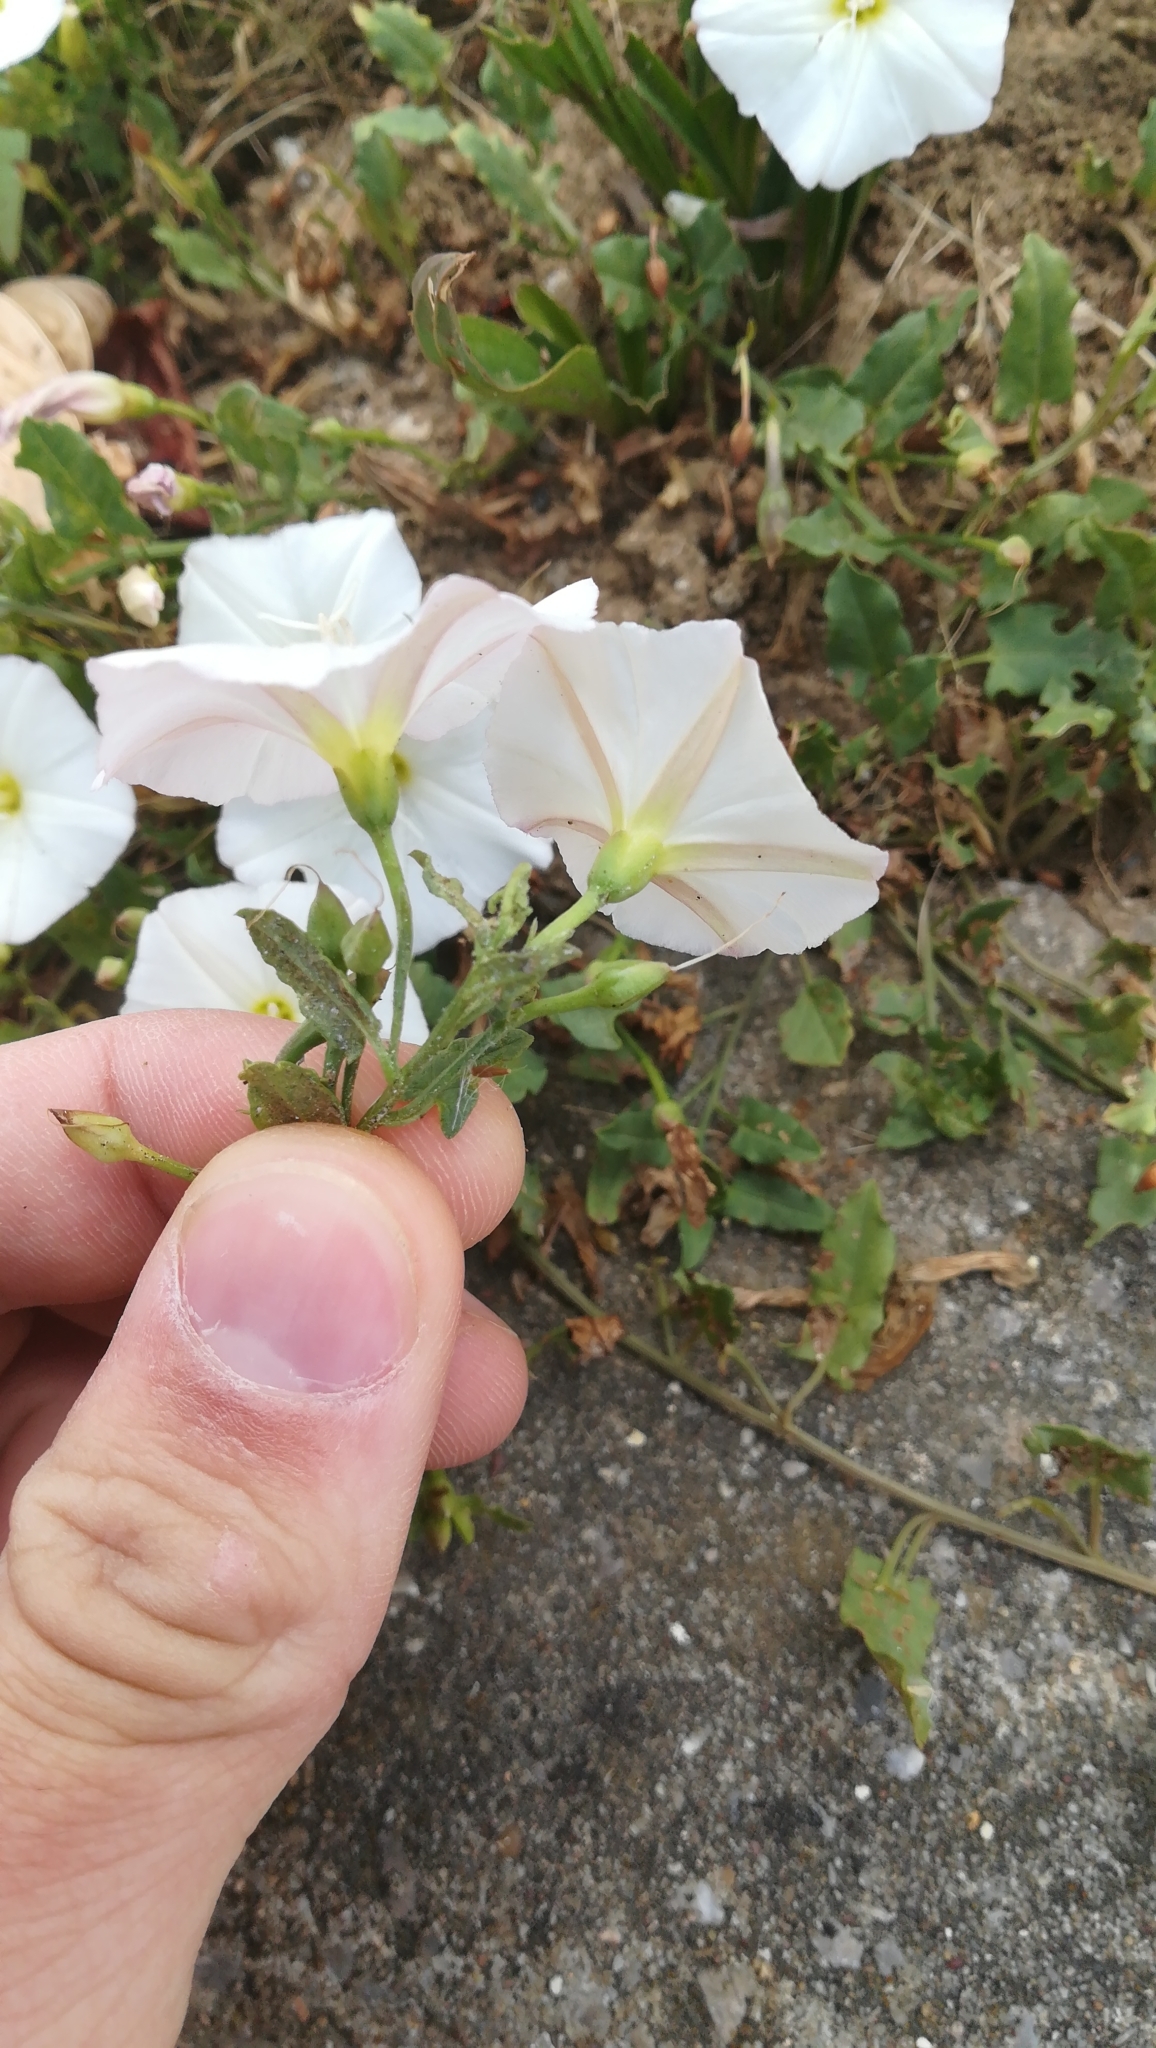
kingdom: Plantae
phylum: Tracheophyta
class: Magnoliopsida
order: Solanales
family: Convolvulaceae
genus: Convolvulus
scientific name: Convolvulus arvensis
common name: Field bindweed
